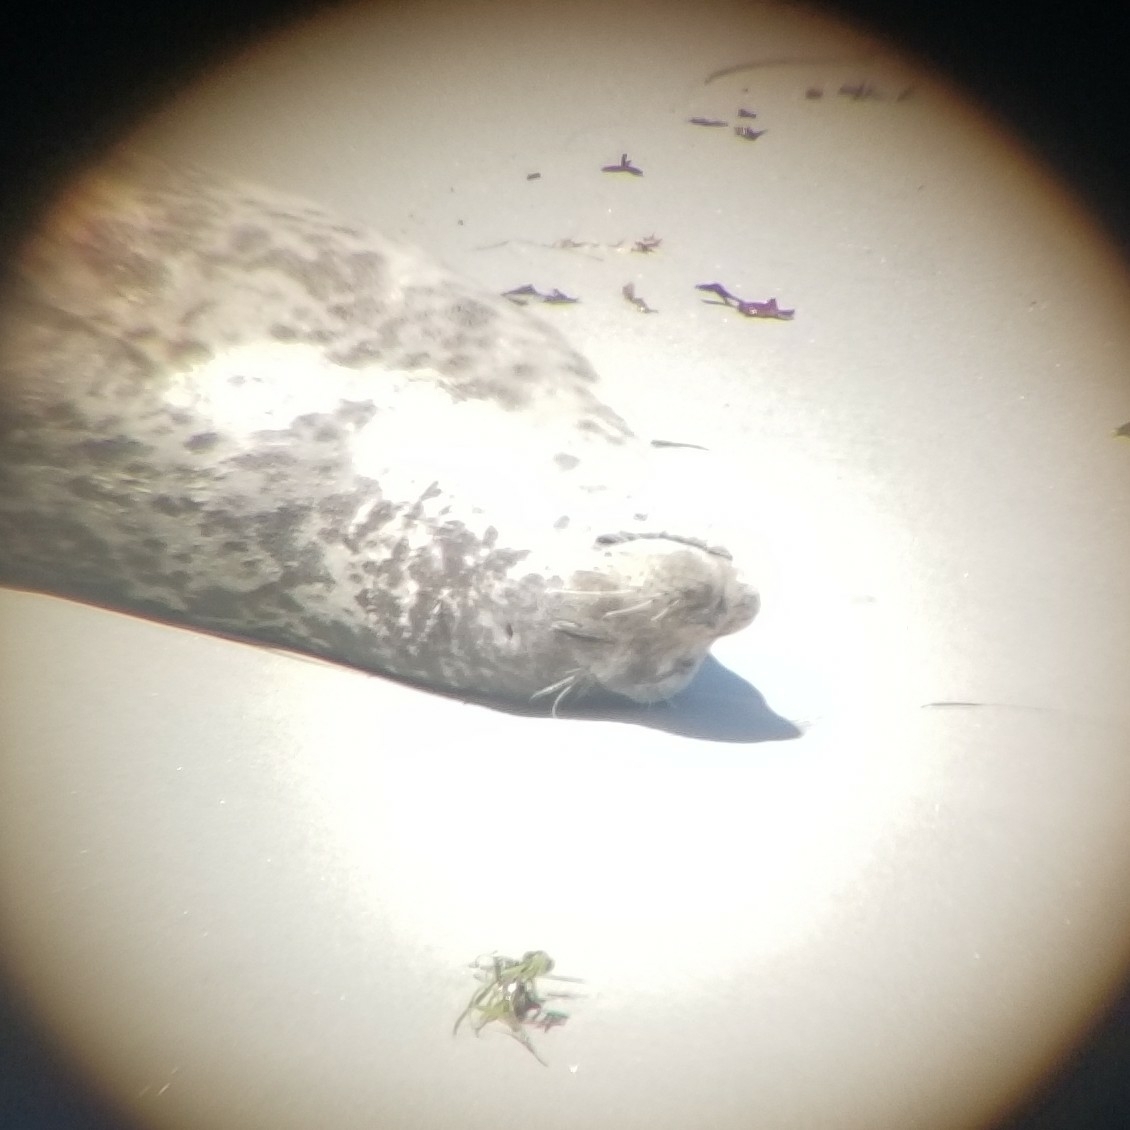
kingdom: Animalia
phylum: Chordata
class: Mammalia
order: Carnivora
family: Phocidae
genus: Phoca
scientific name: Phoca vitulina
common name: Harbor seal
